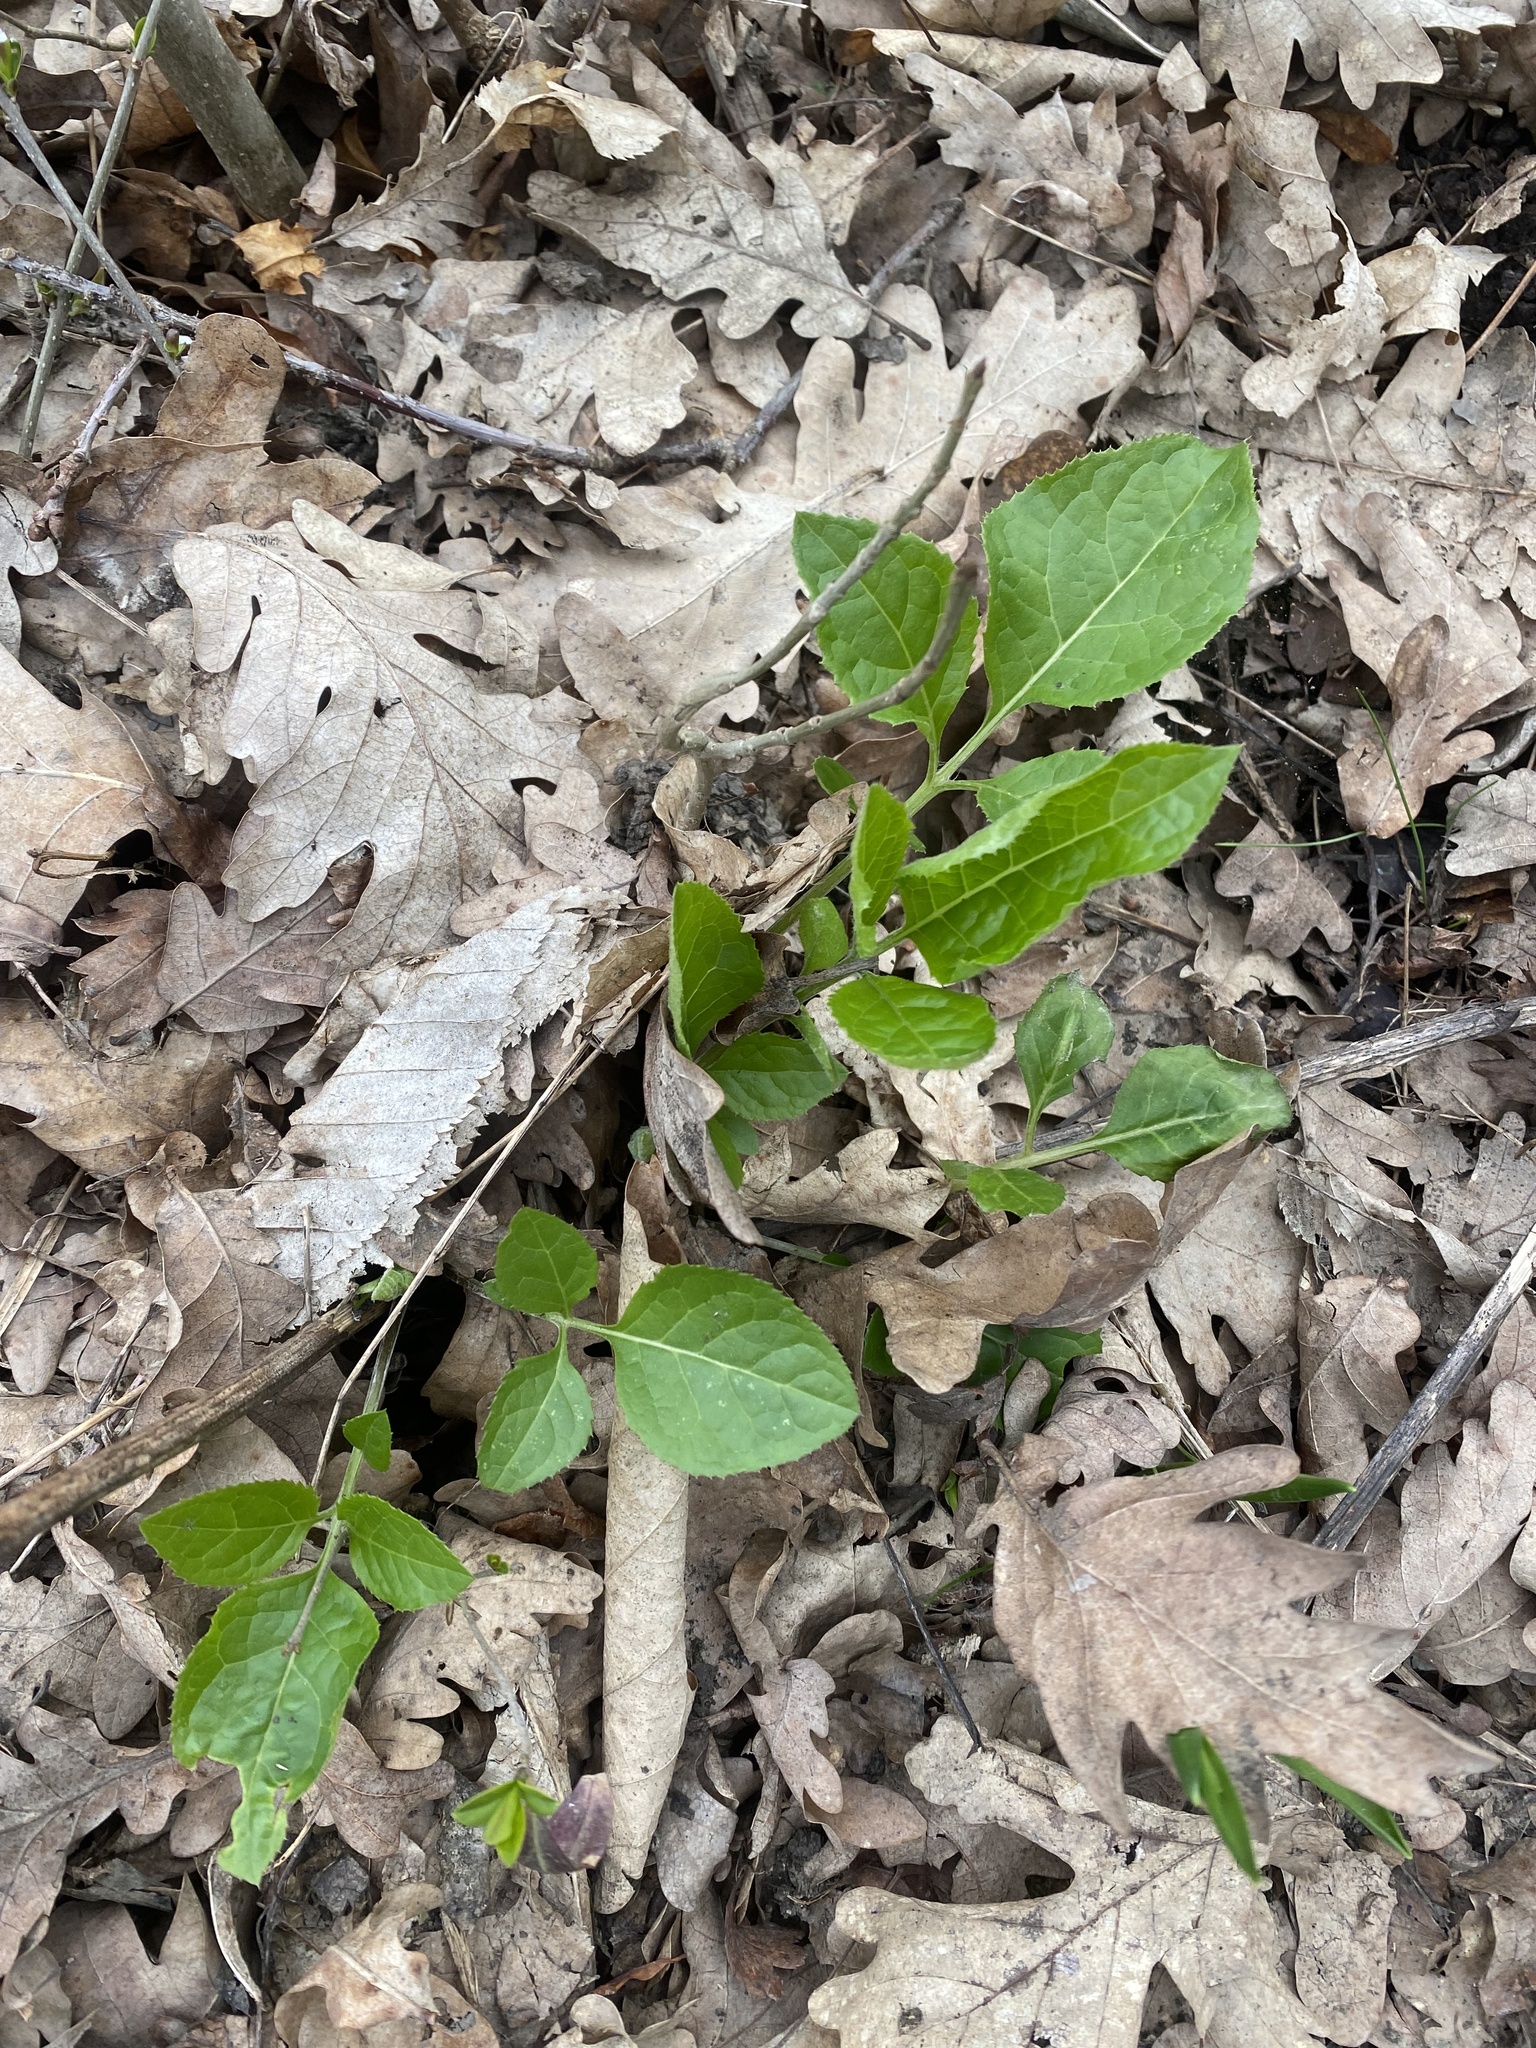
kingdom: Plantae
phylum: Tracheophyta
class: Magnoliopsida
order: Asterales
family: Asteraceae
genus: Klasea
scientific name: Klasea quinquefolia
